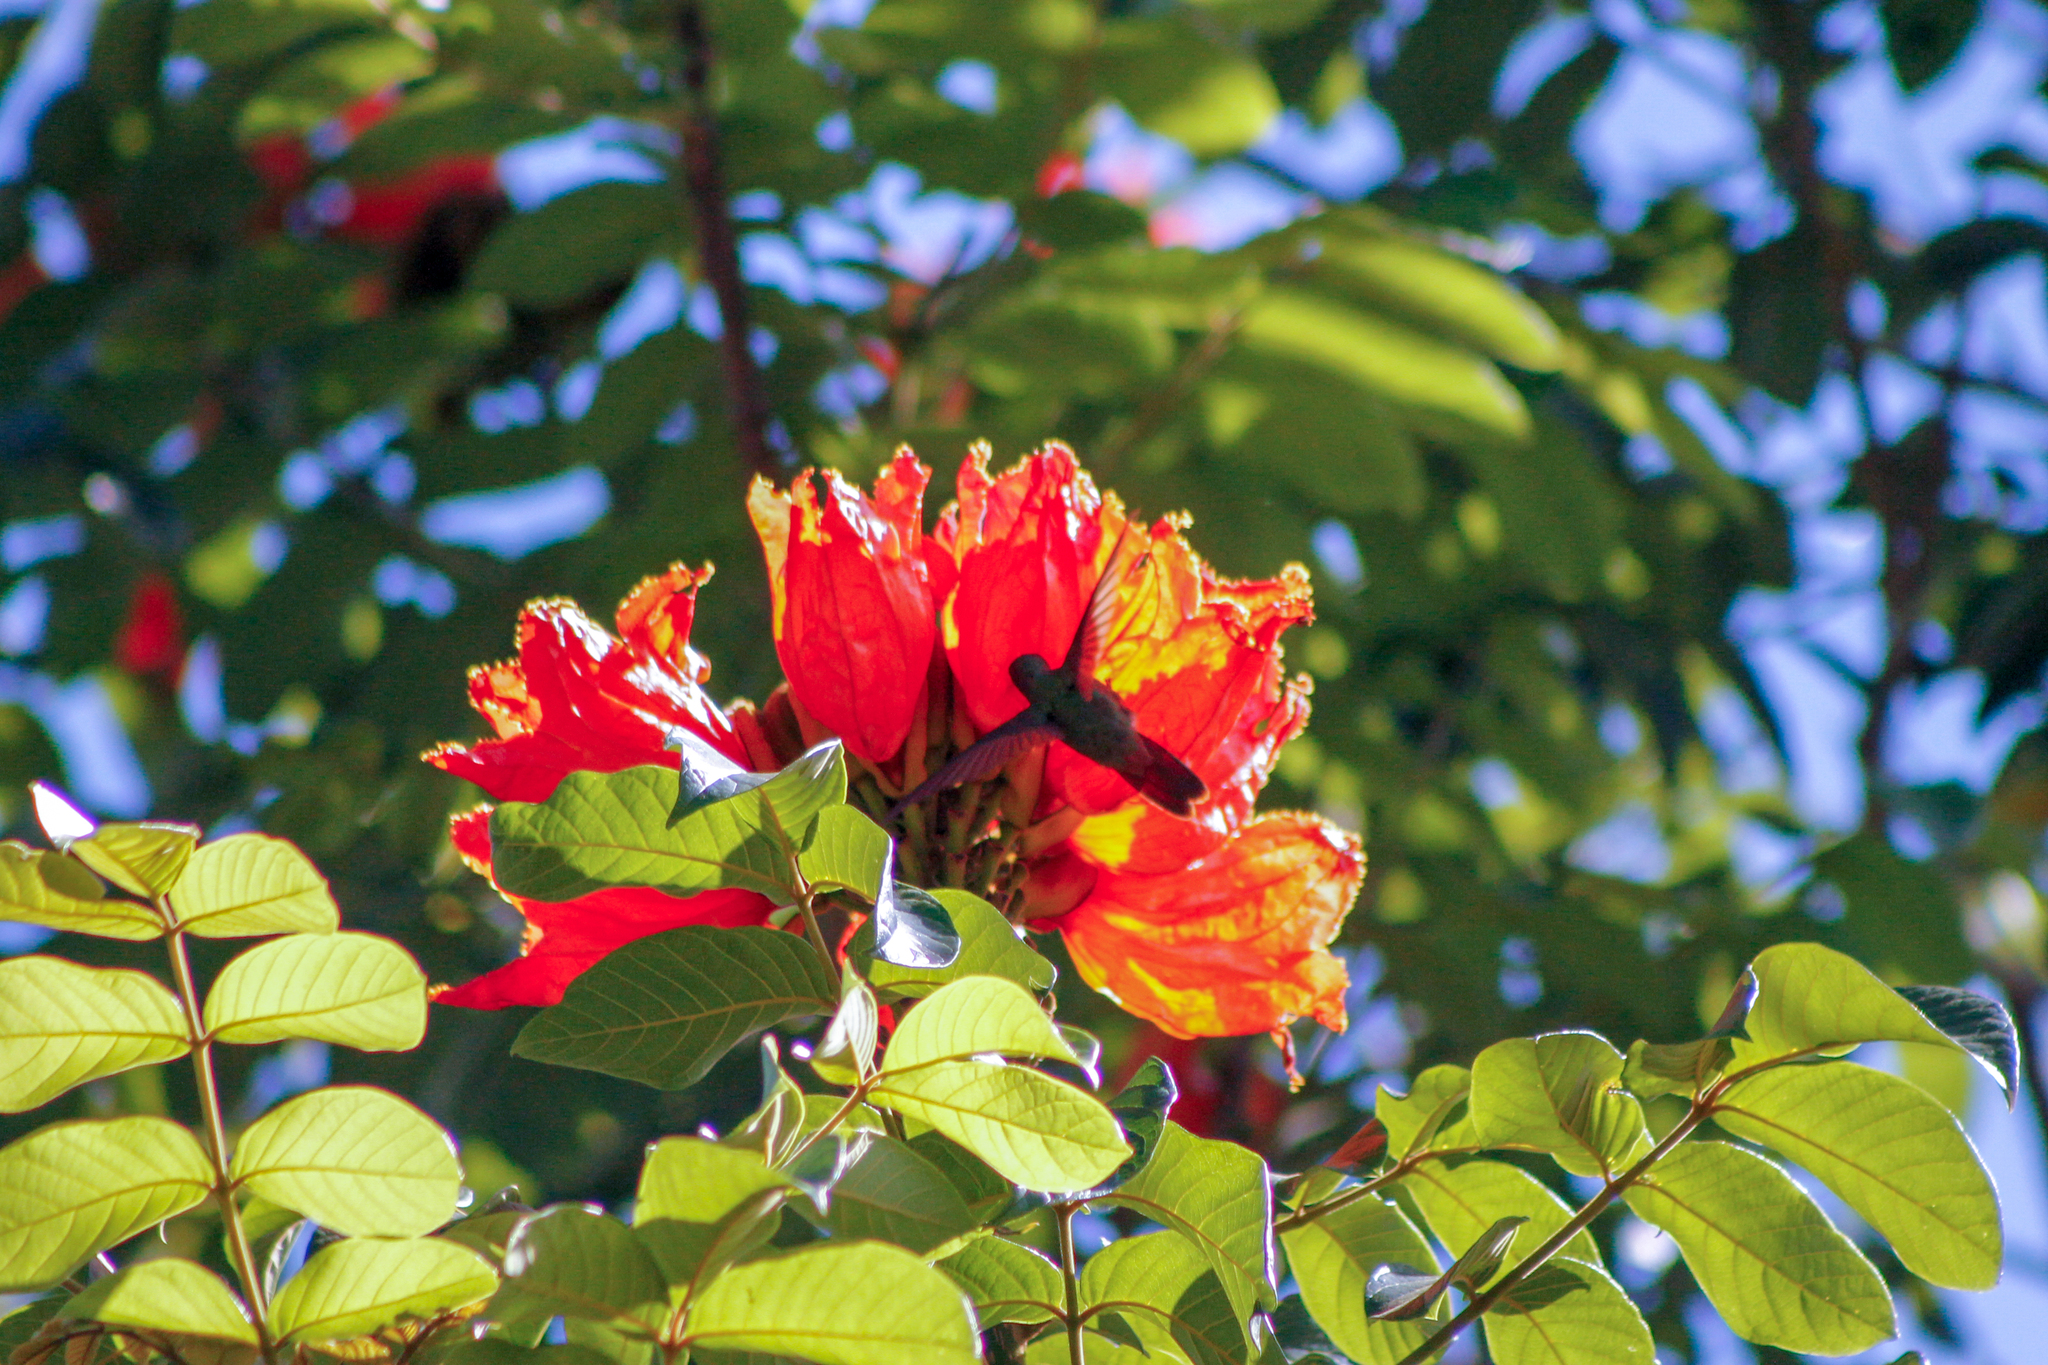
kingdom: Animalia
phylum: Chordata
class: Aves
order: Apodiformes
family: Trochilidae
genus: Amazilia
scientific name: Amazilia tzacatl
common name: Rufous-tailed hummingbird
